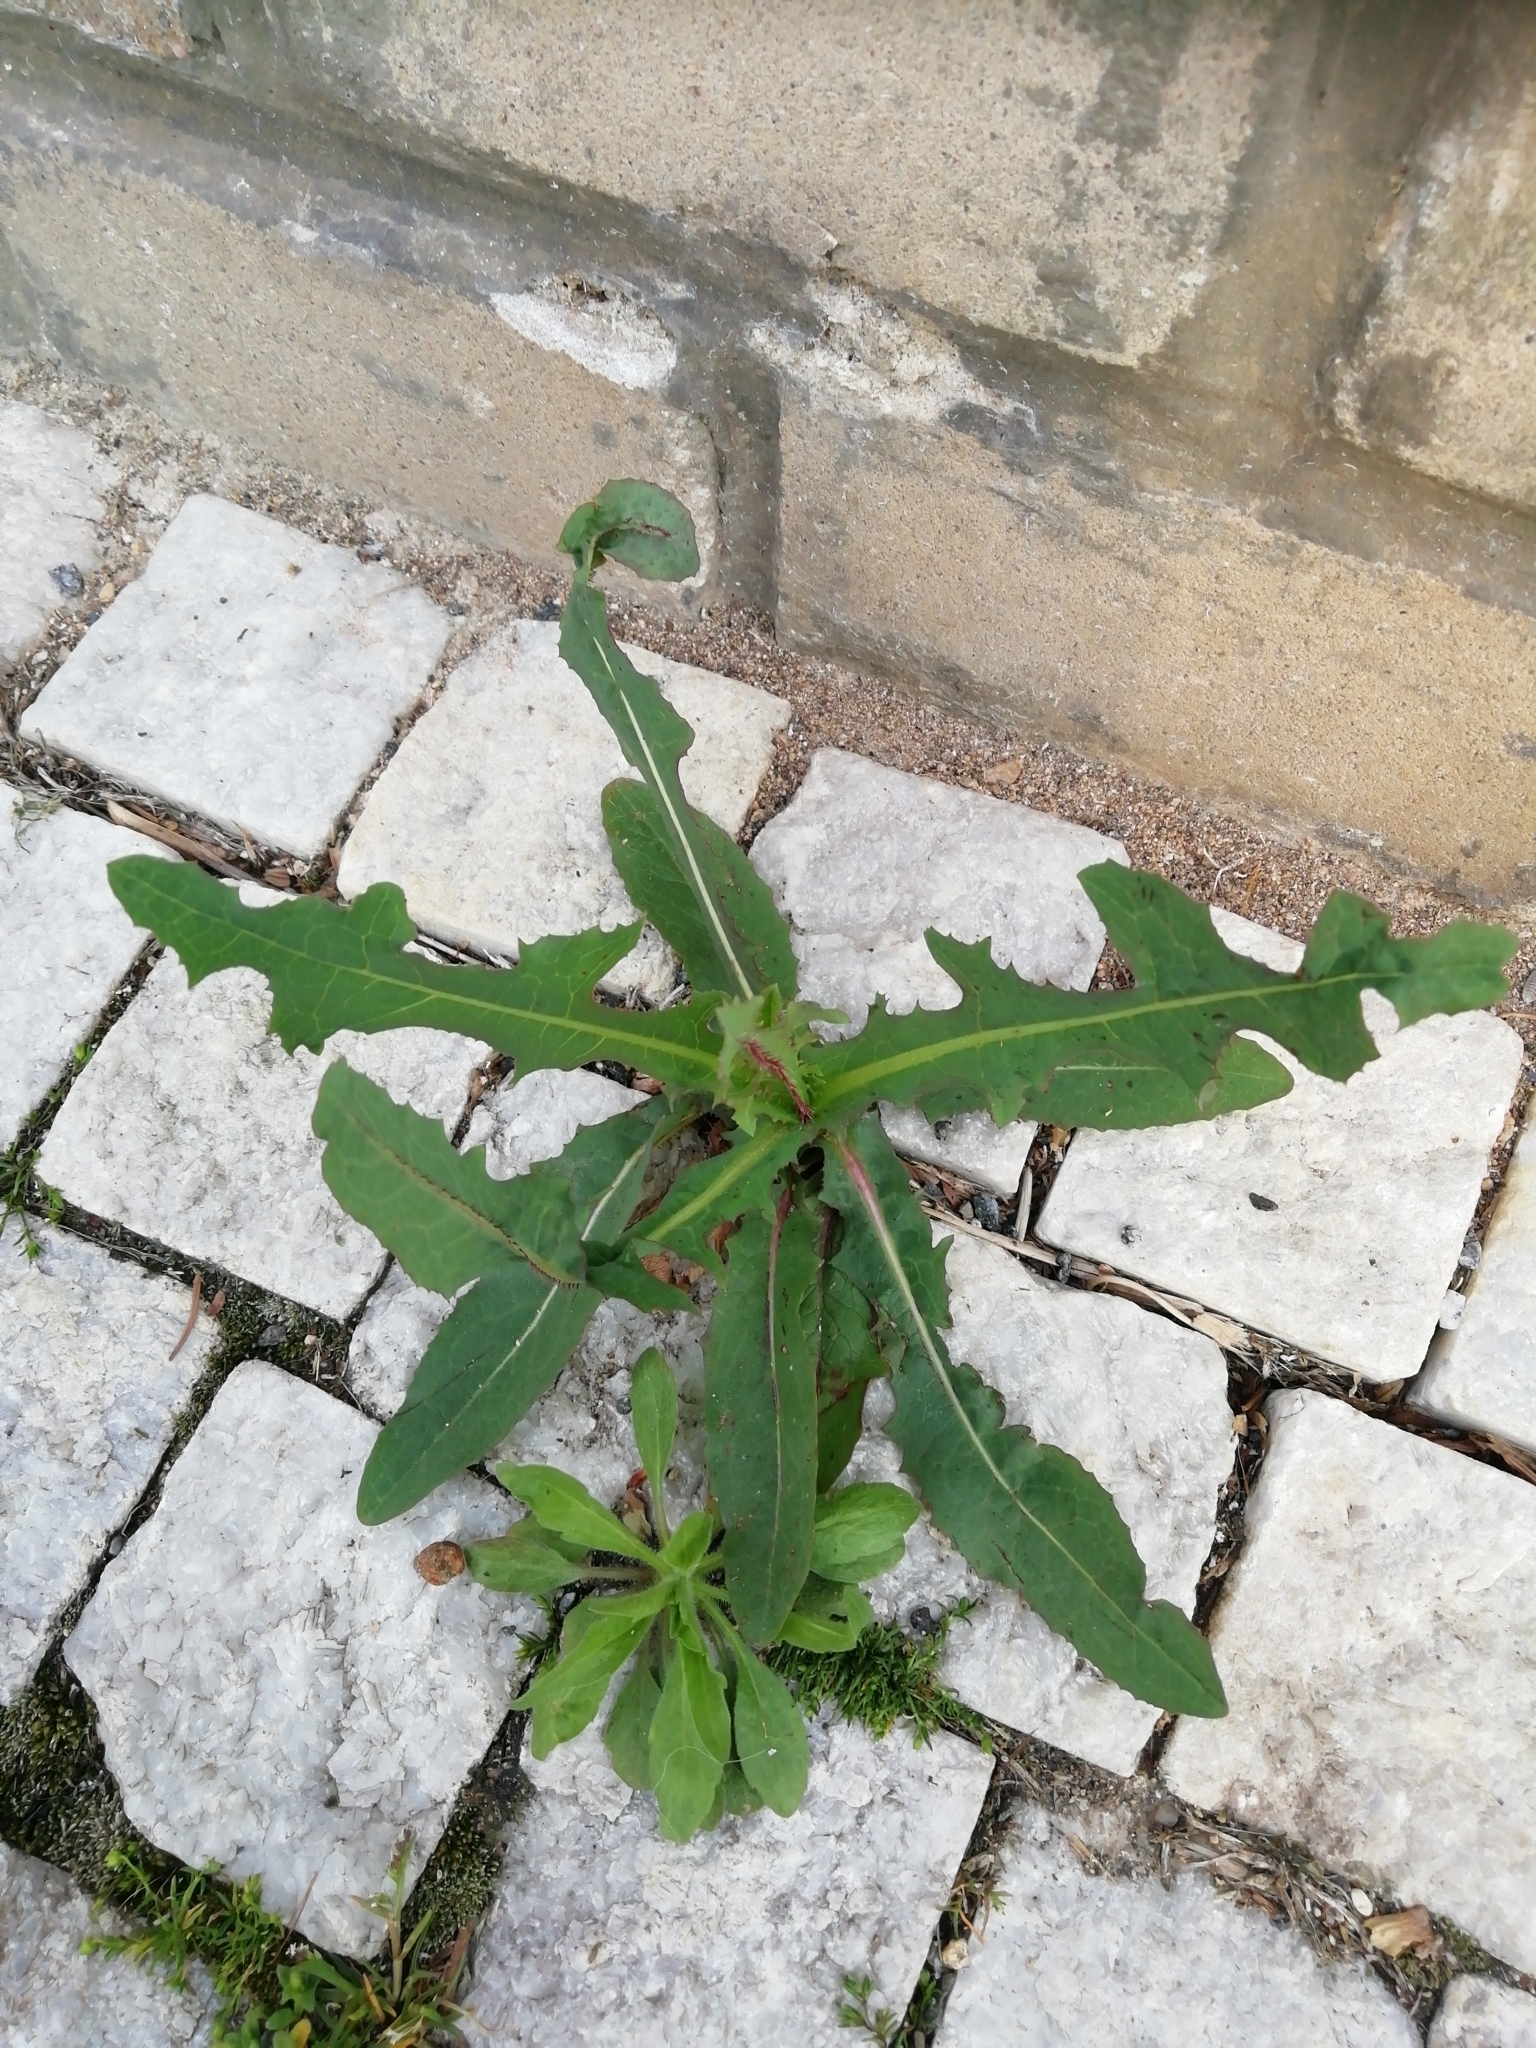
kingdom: Plantae
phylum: Tracheophyta
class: Magnoliopsida
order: Asterales
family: Asteraceae
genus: Lactuca
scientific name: Lactuca serriola
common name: Prickly lettuce
